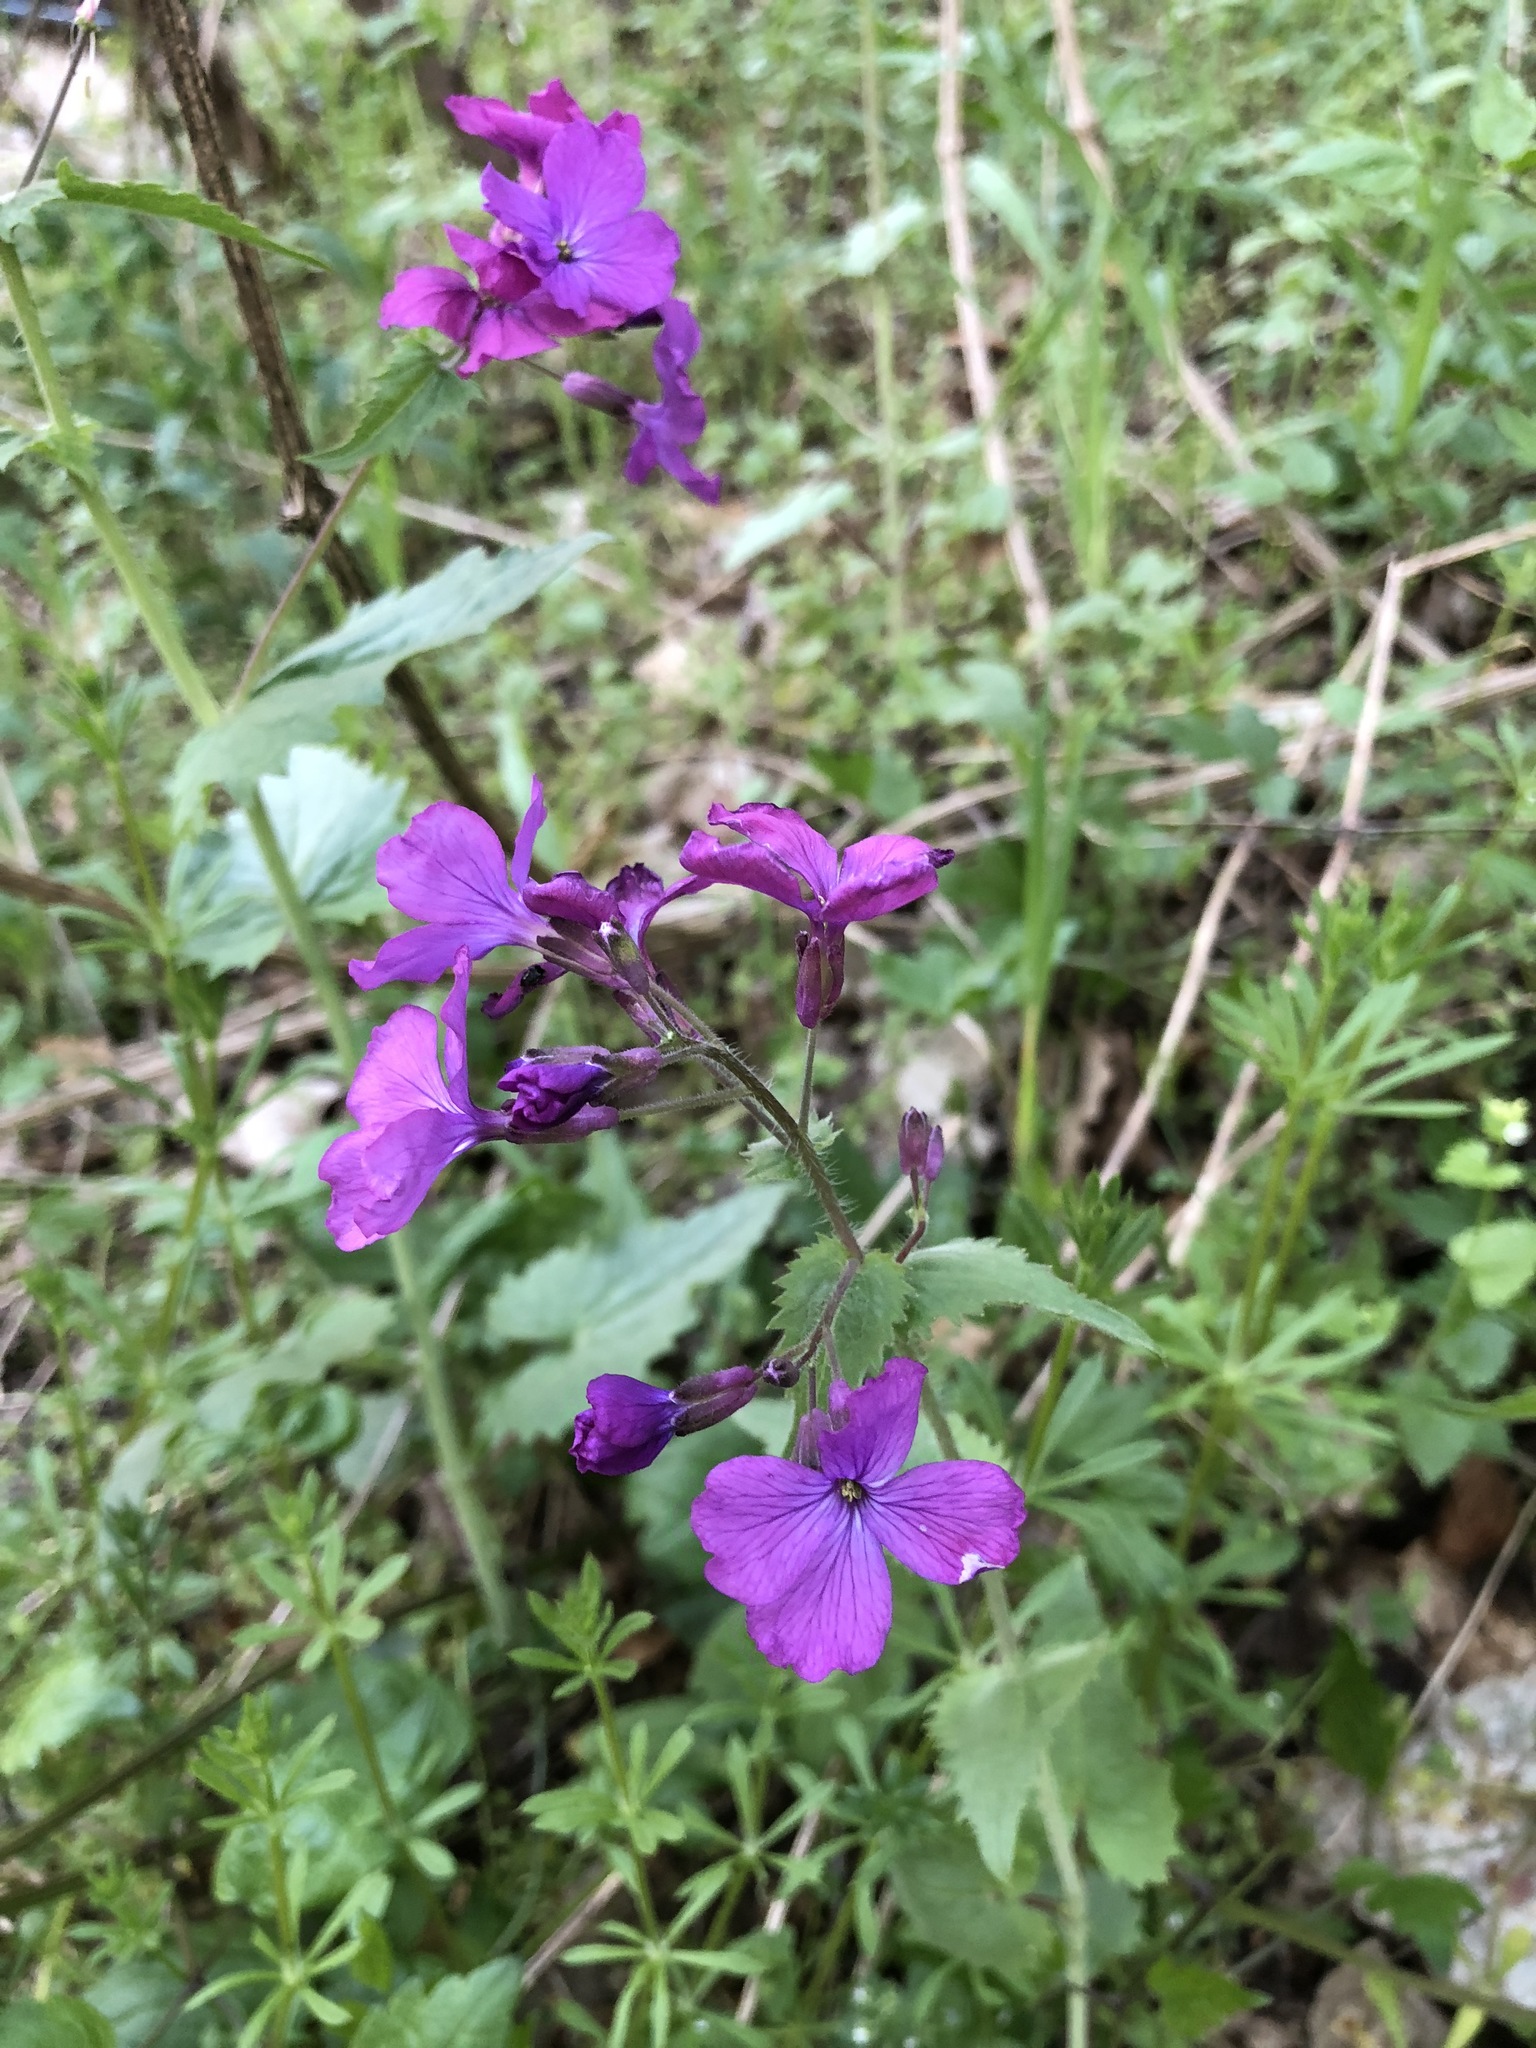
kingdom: Plantae
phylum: Tracheophyta
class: Magnoliopsida
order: Brassicales
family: Brassicaceae
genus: Lunaria
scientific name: Lunaria annua
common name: Honesty
